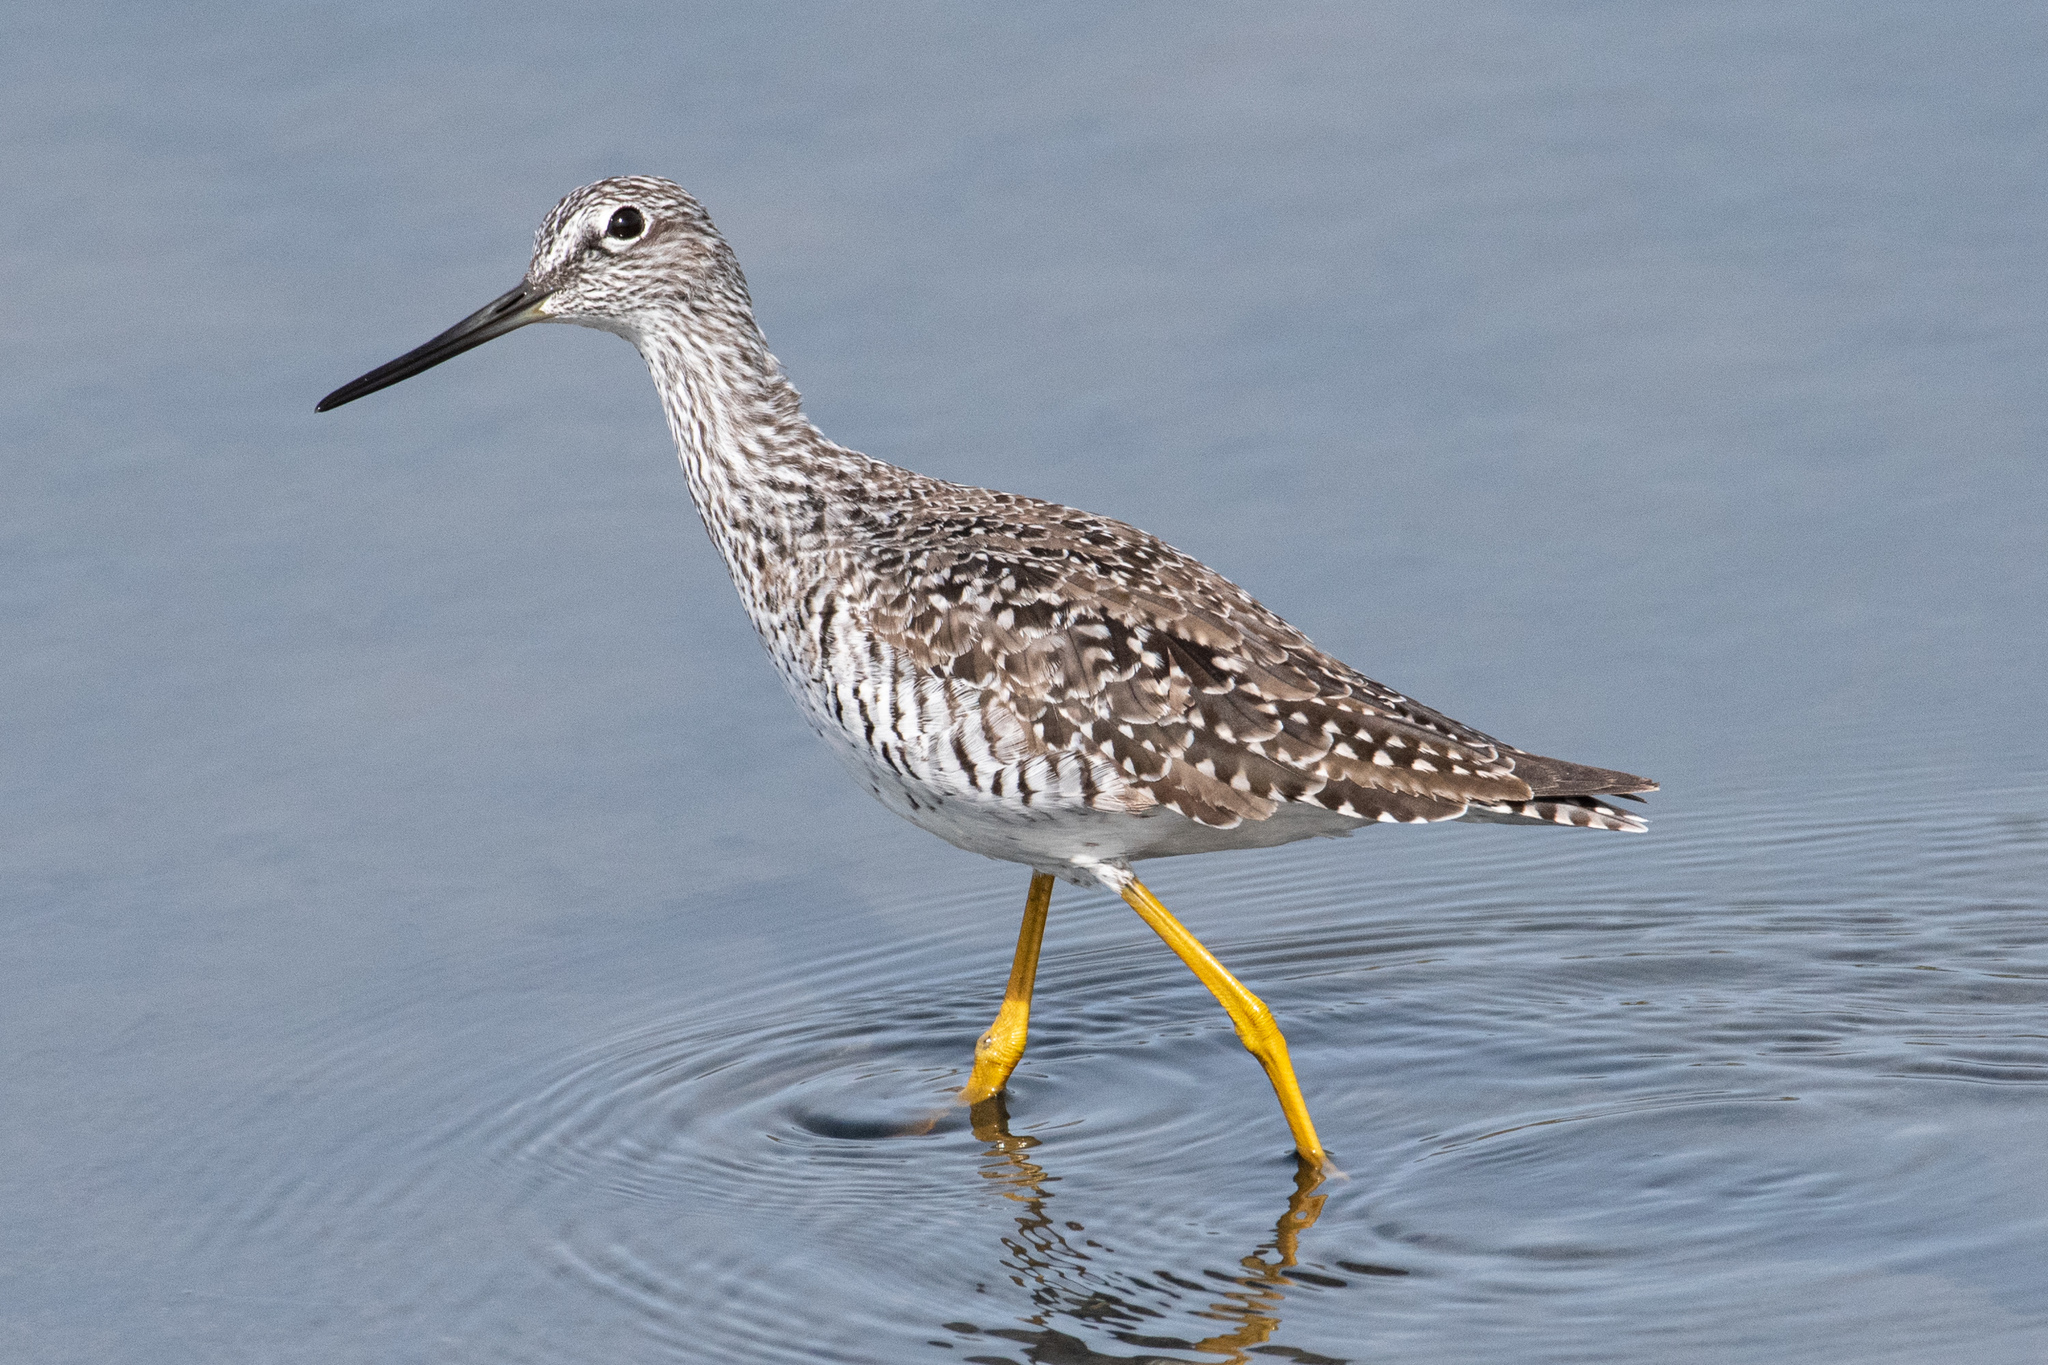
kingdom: Animalia
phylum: Chordata
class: Aves
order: Charadriiformes
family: Scolopacidae
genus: Tringa
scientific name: Tringa melanoleuca
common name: Greater yellowlegs
